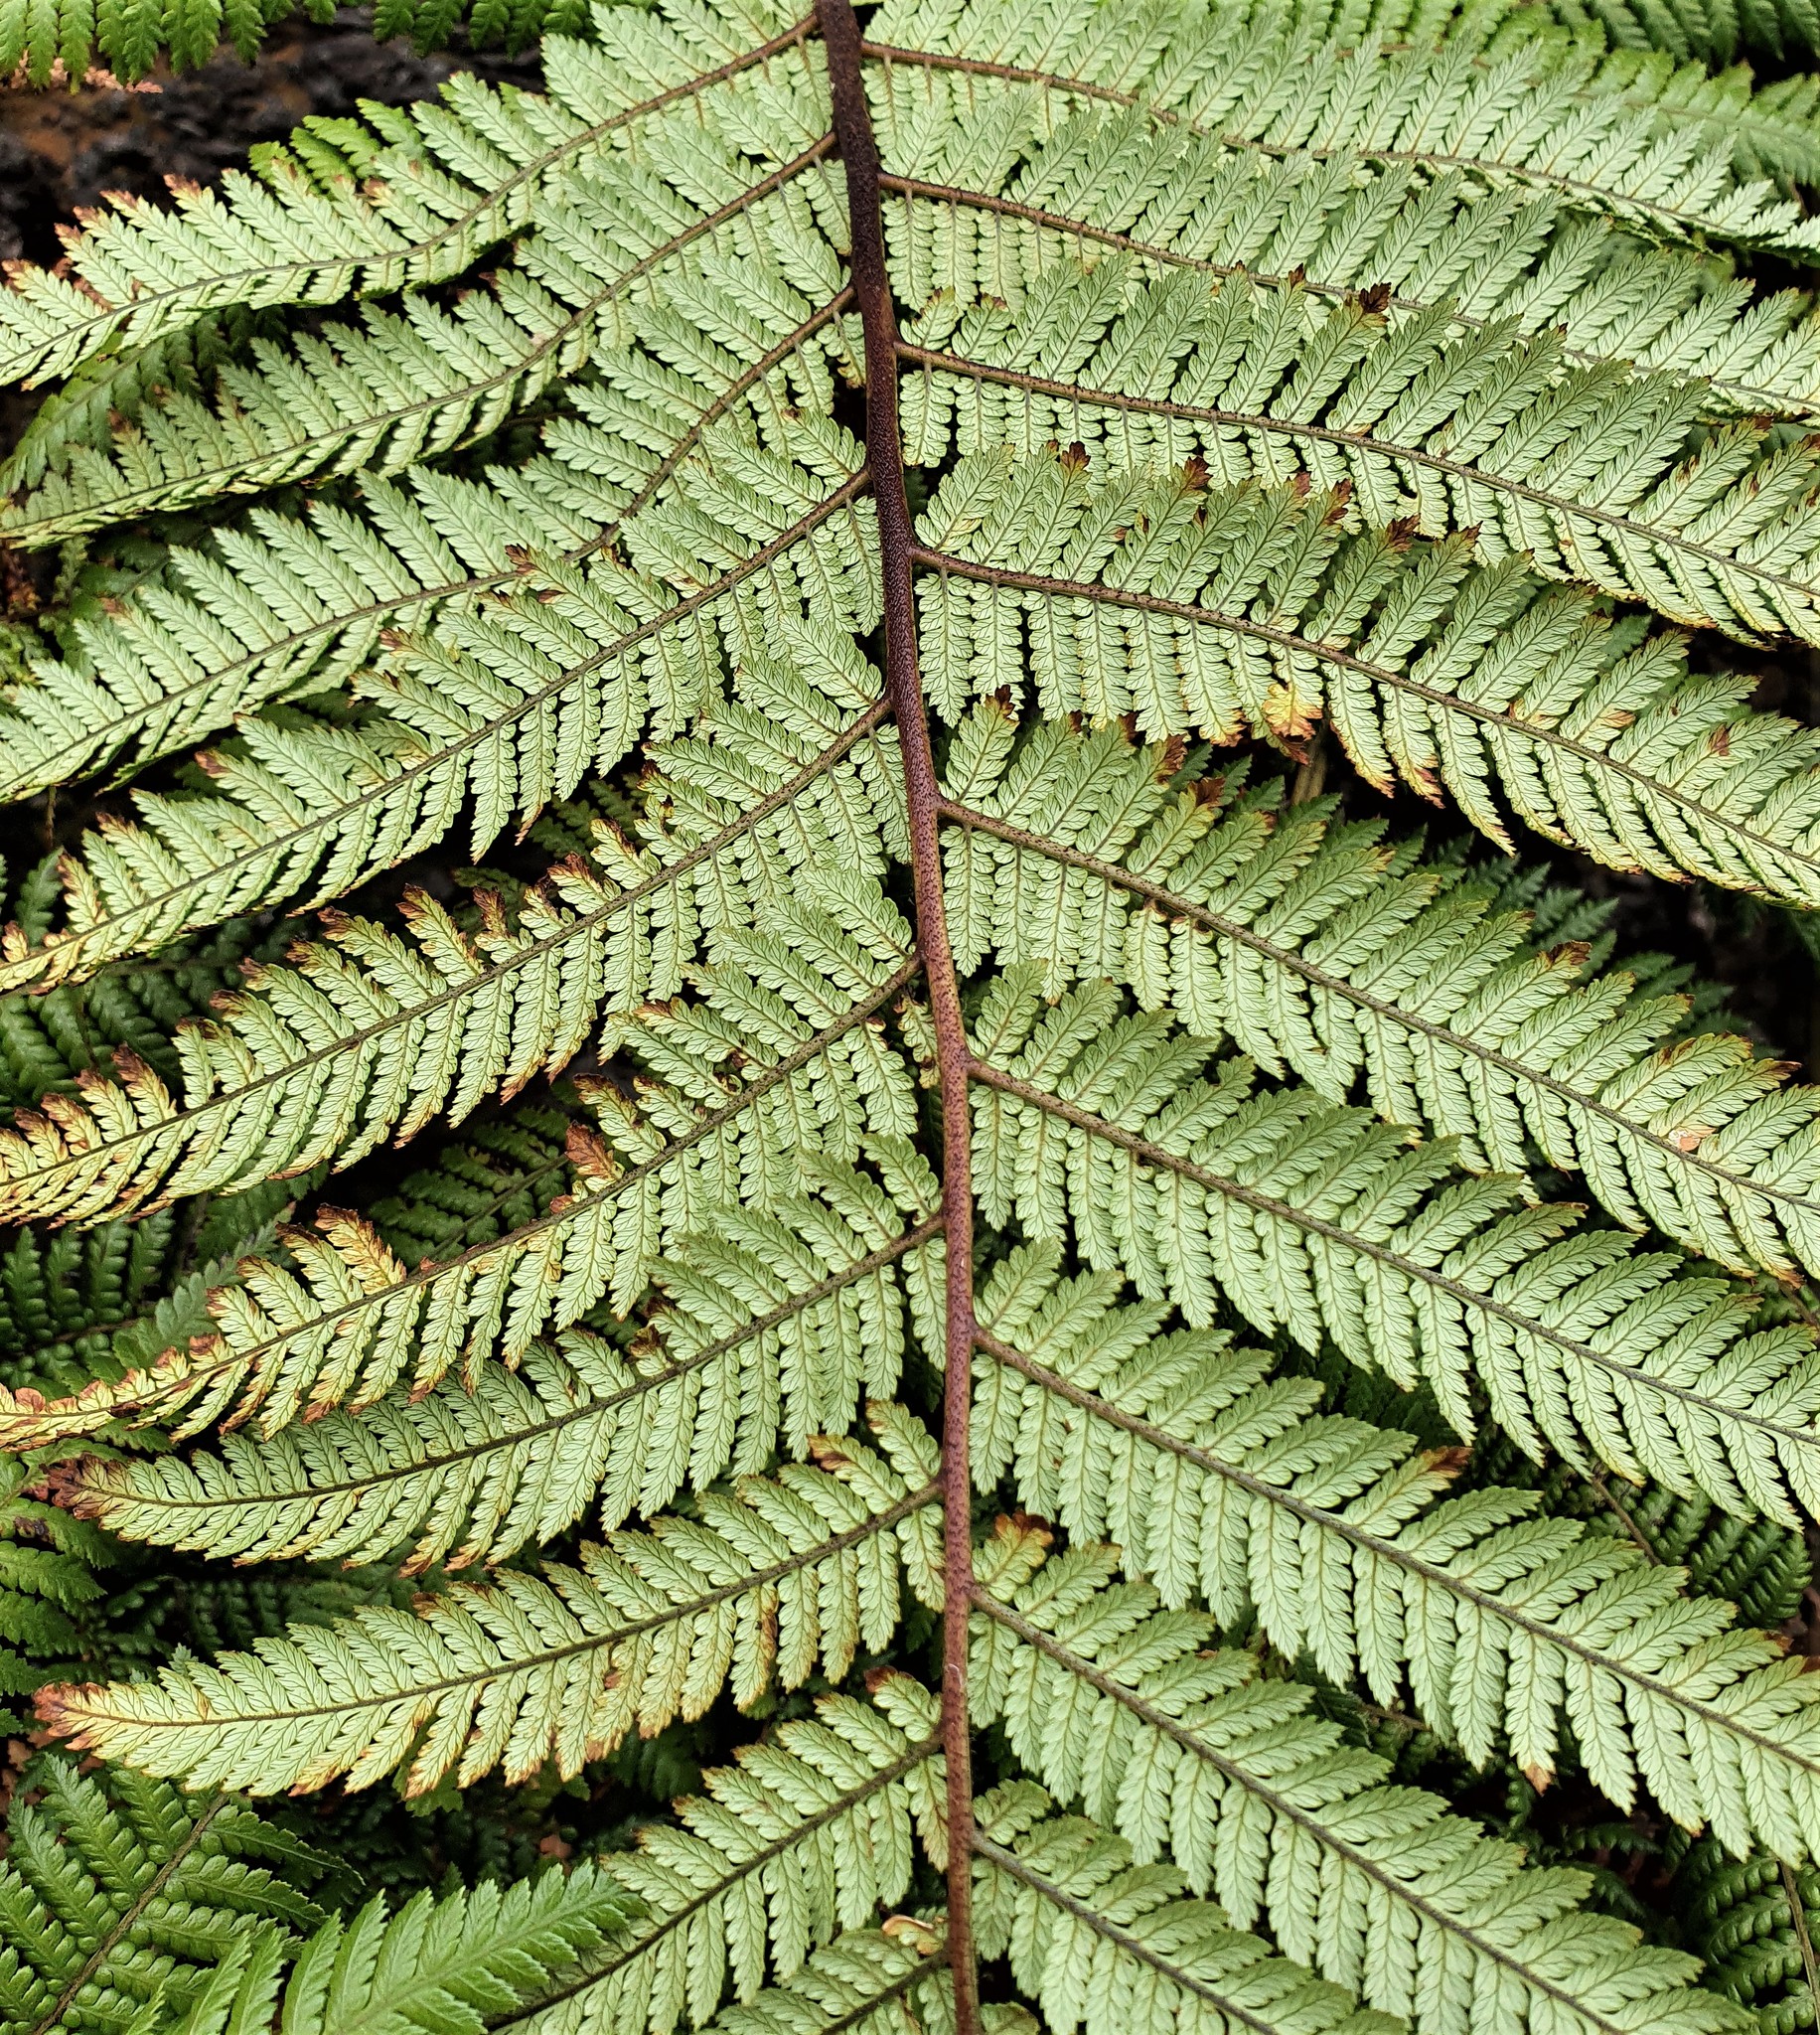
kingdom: Plantae
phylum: Tracheophyta
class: Polypodiopsida
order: Cyatheales
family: Dicksoniaceae
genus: Dicksonia
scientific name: Dicksonia squarrosa
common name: Hard treefern
